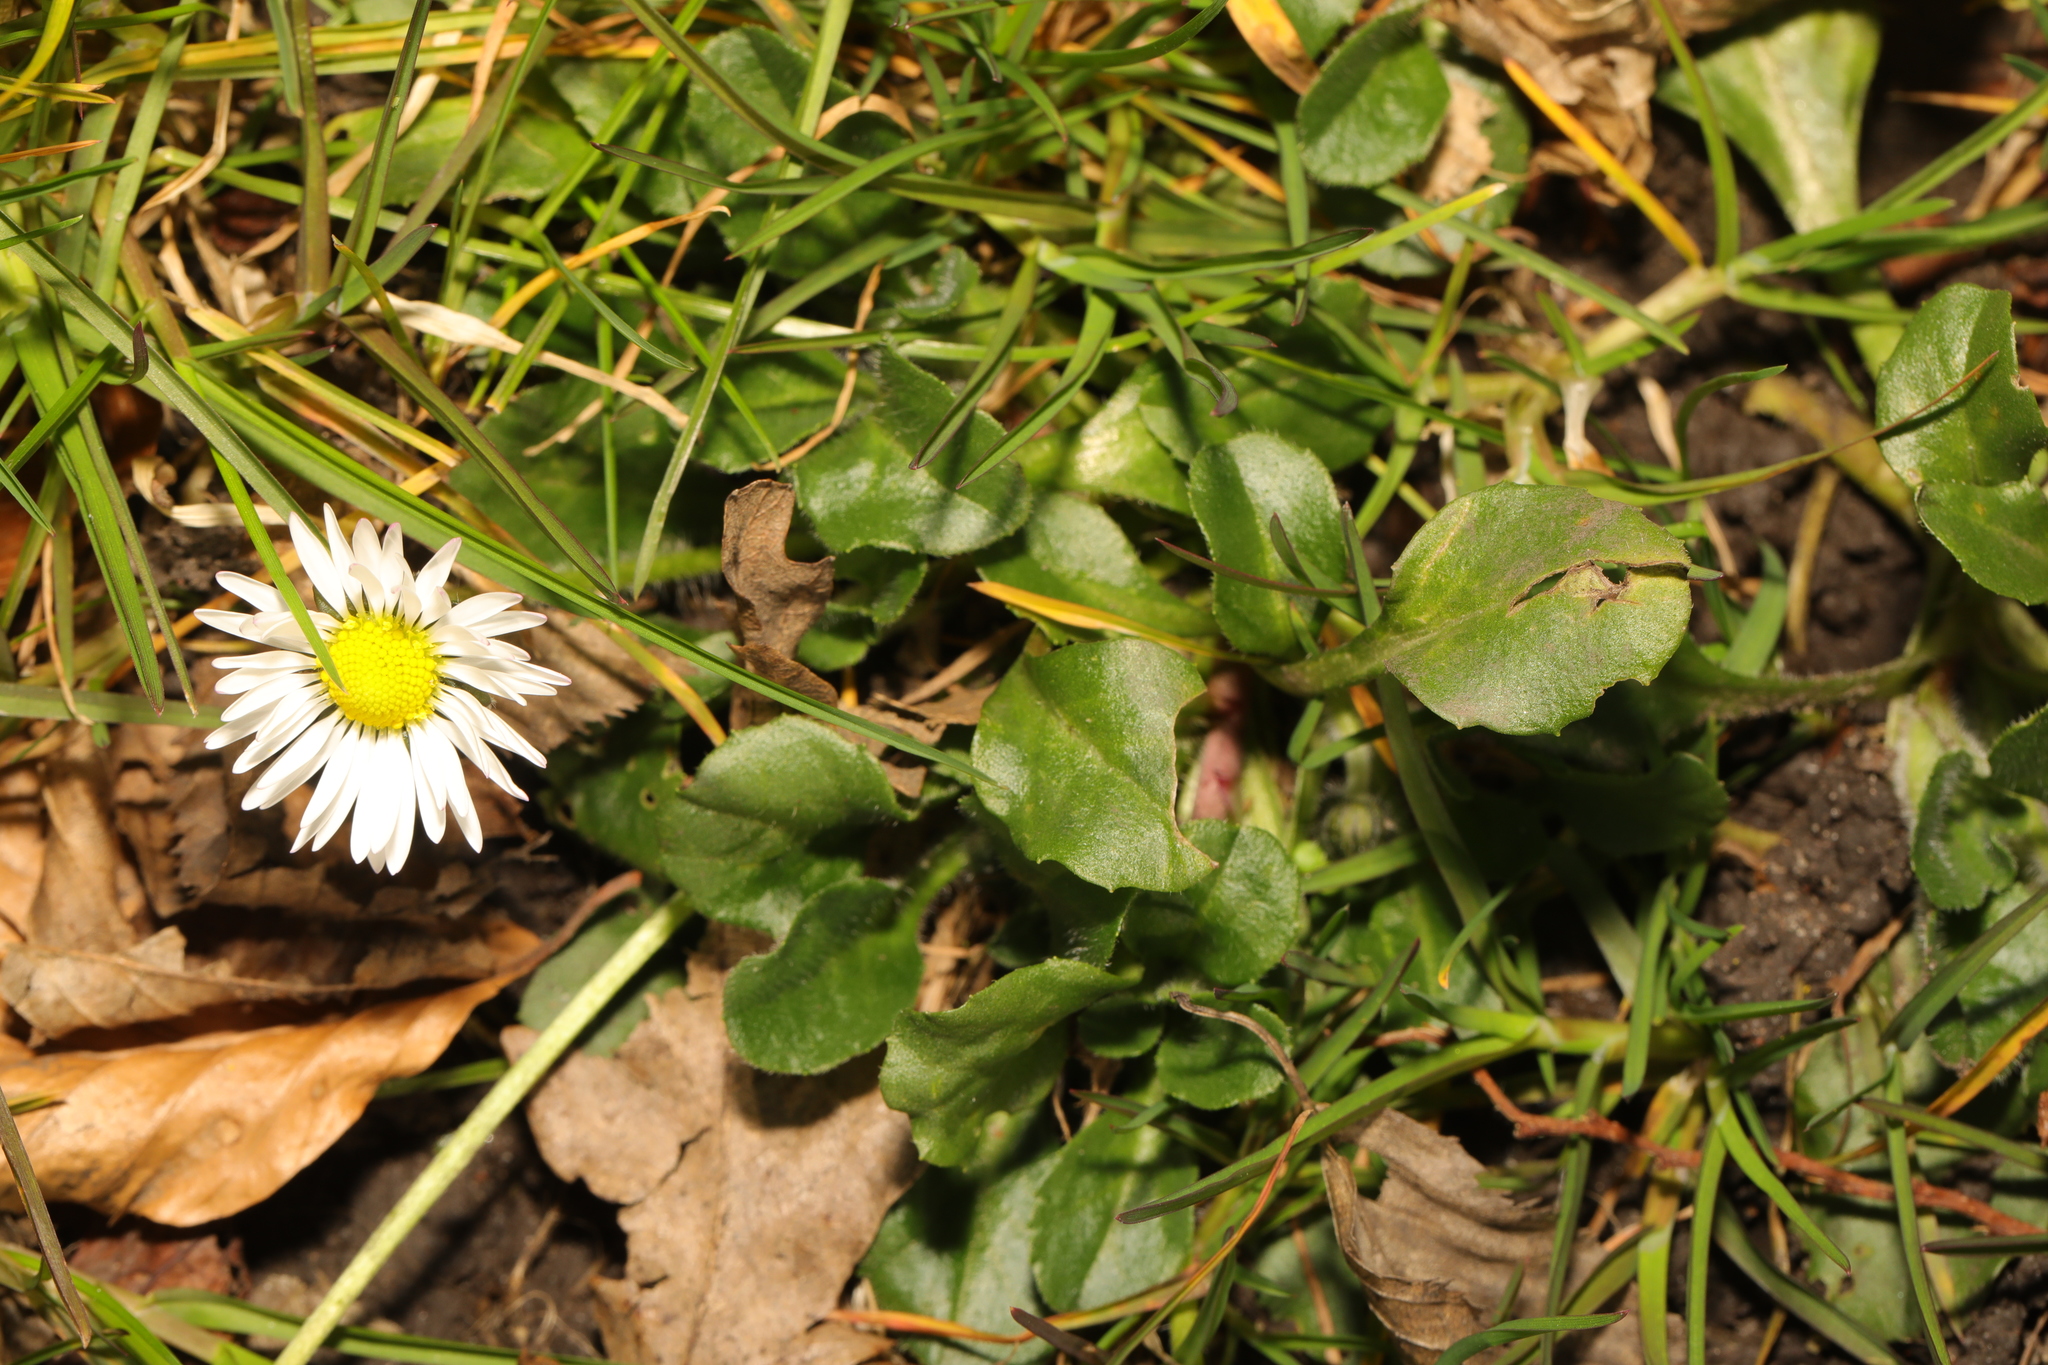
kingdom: Plantae
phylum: Tracheophyta
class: Magnoliopsida
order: Asterales
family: Asteraceae
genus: Bellis
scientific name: Bellis perennis
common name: Lawndaisy
